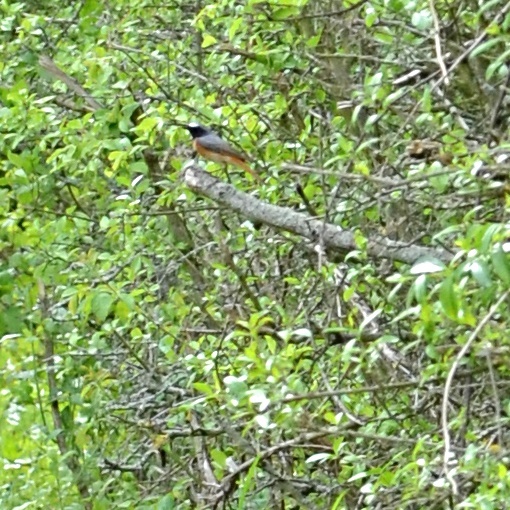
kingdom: Animalia
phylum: Chordata
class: Aves
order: Passeriformes
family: Muscicapidae
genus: Phoenicurus
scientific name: Phoenicurus phoenicurus
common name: Common redstart
